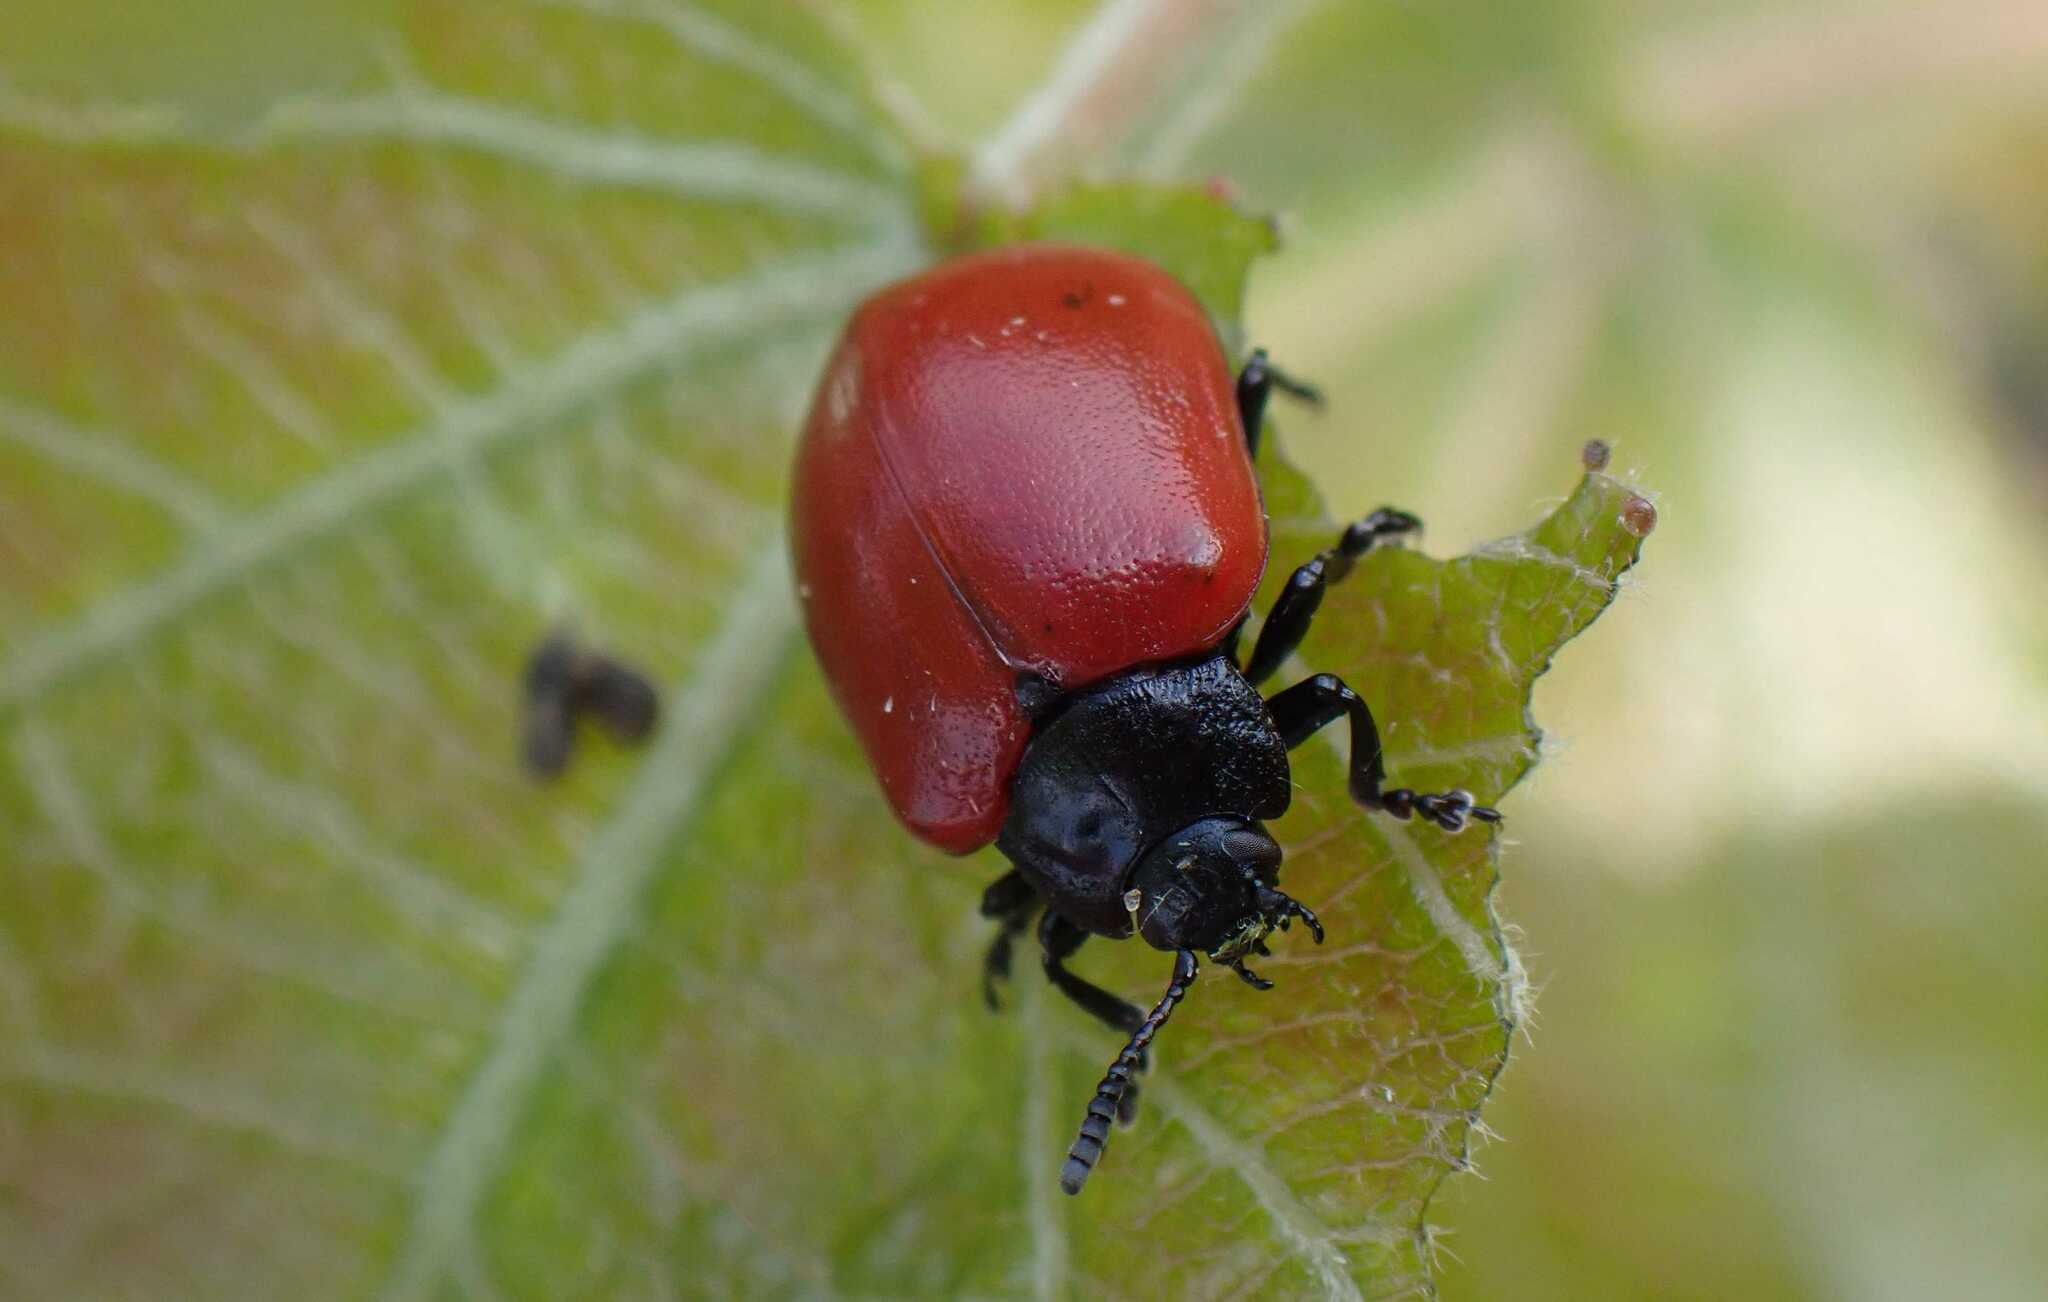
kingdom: Animalia
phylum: Arthropoda
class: Insecta
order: Coleoptera
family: Chrysomelidae
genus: Chrysomela
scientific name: Chrysomela populi
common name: Red poplar leaf beetle
